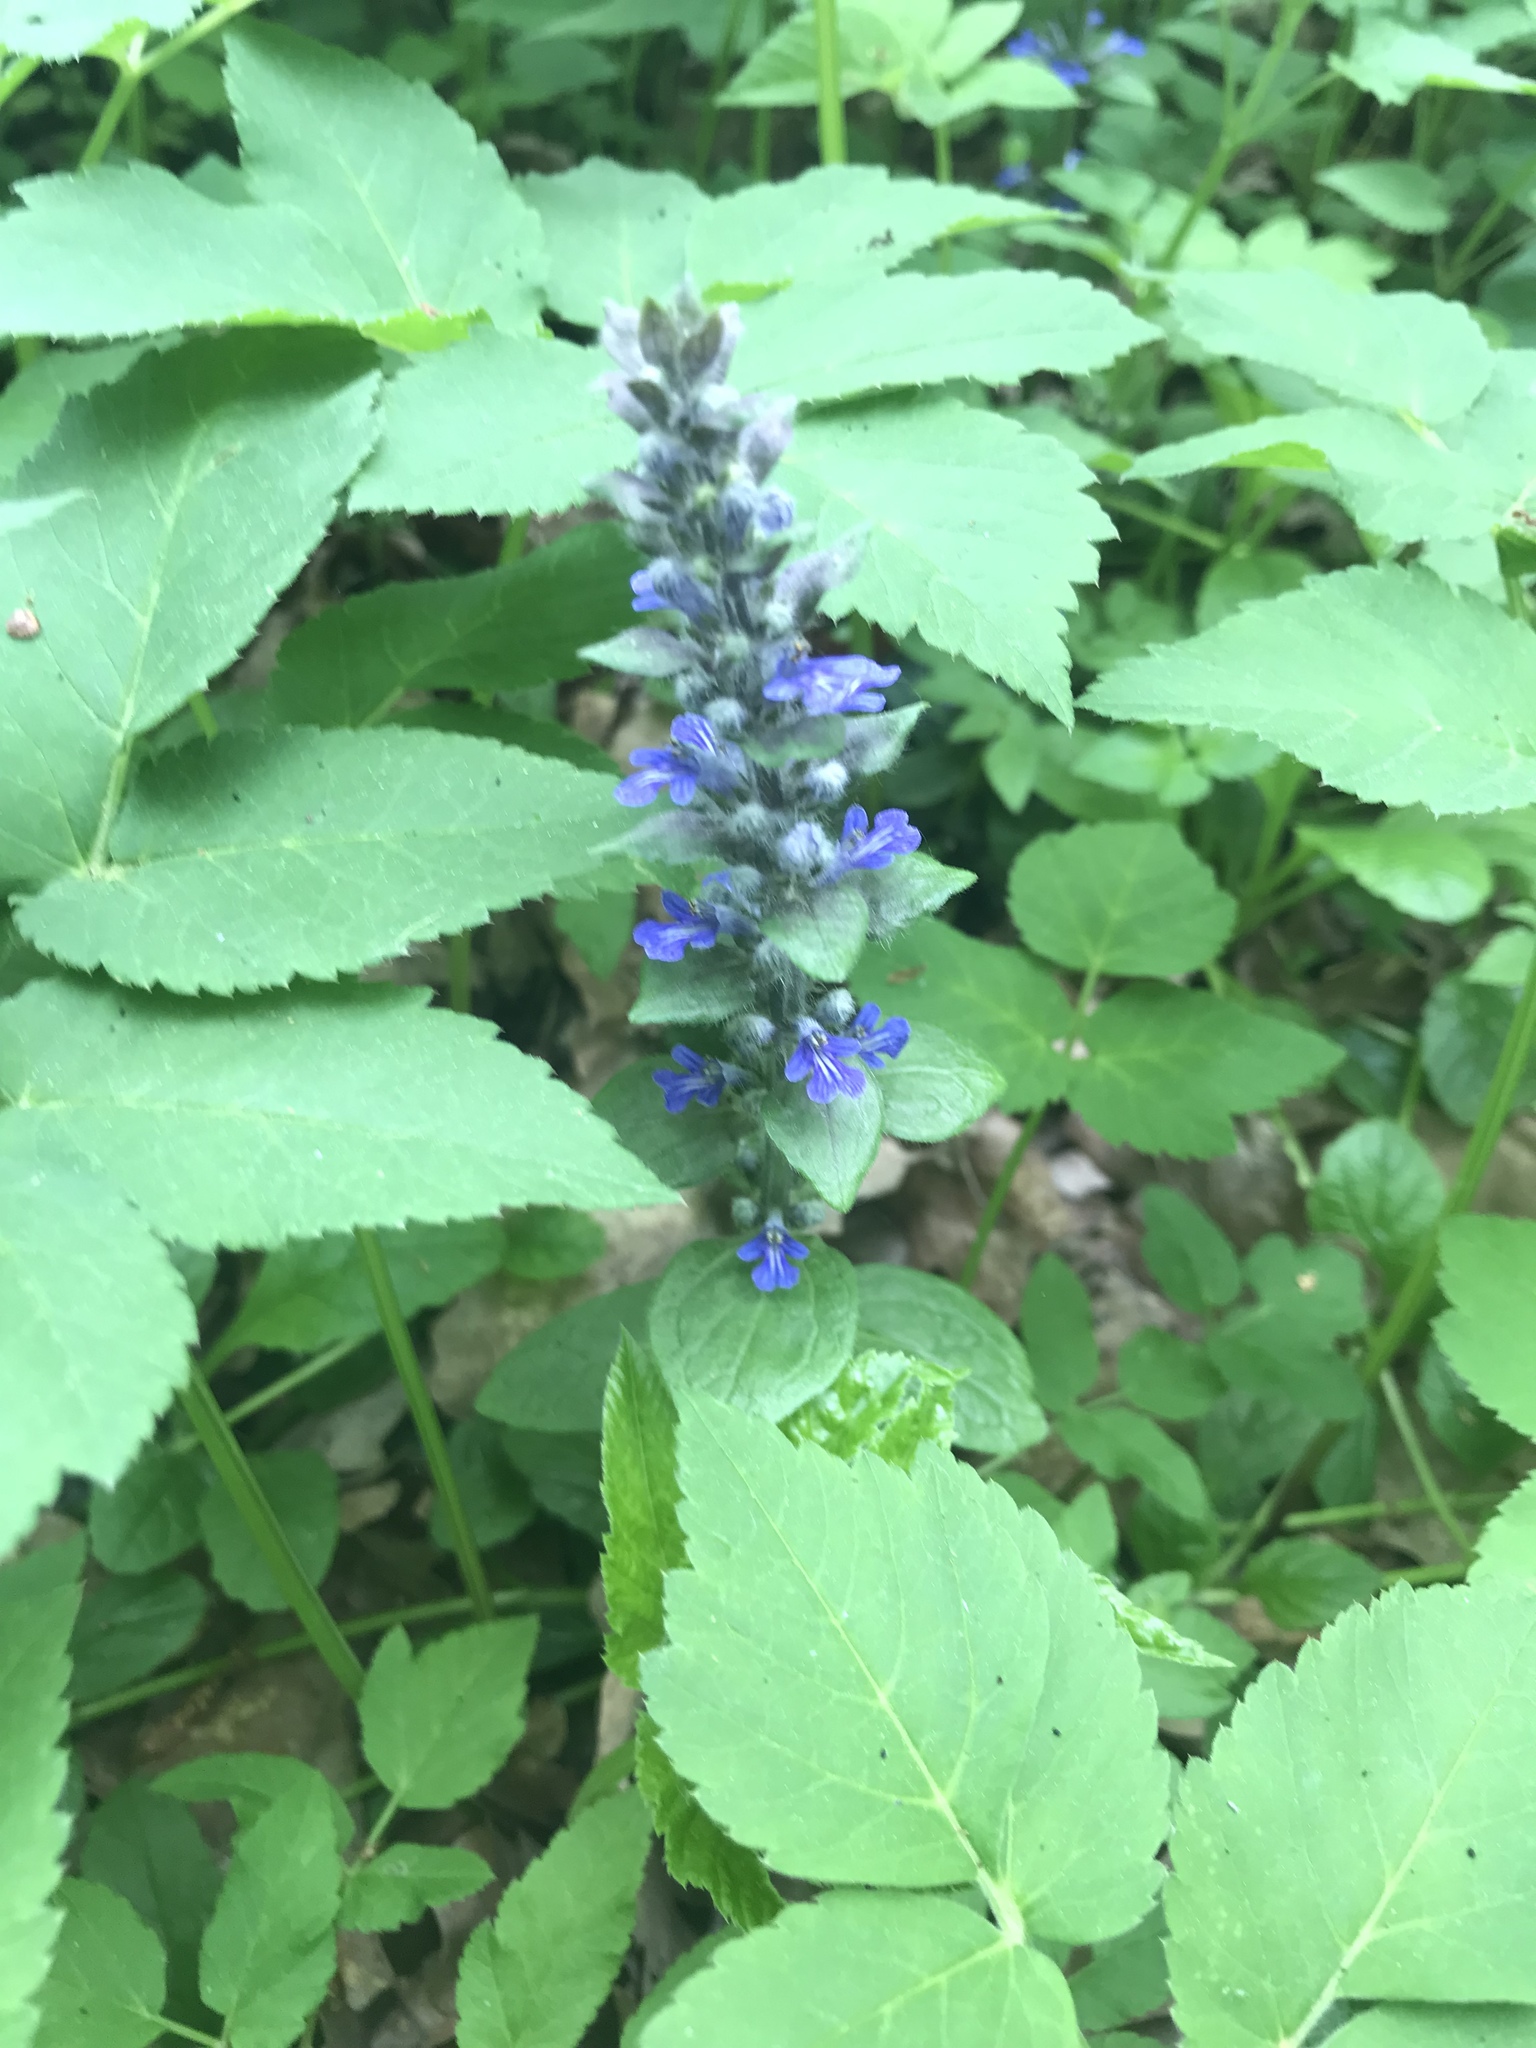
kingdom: Plantae
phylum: Tracheophyta
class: Magnoliopsida
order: Lamiales
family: Lamiaceae
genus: Ajuga
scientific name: Ajuga reptans
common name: Bugle
